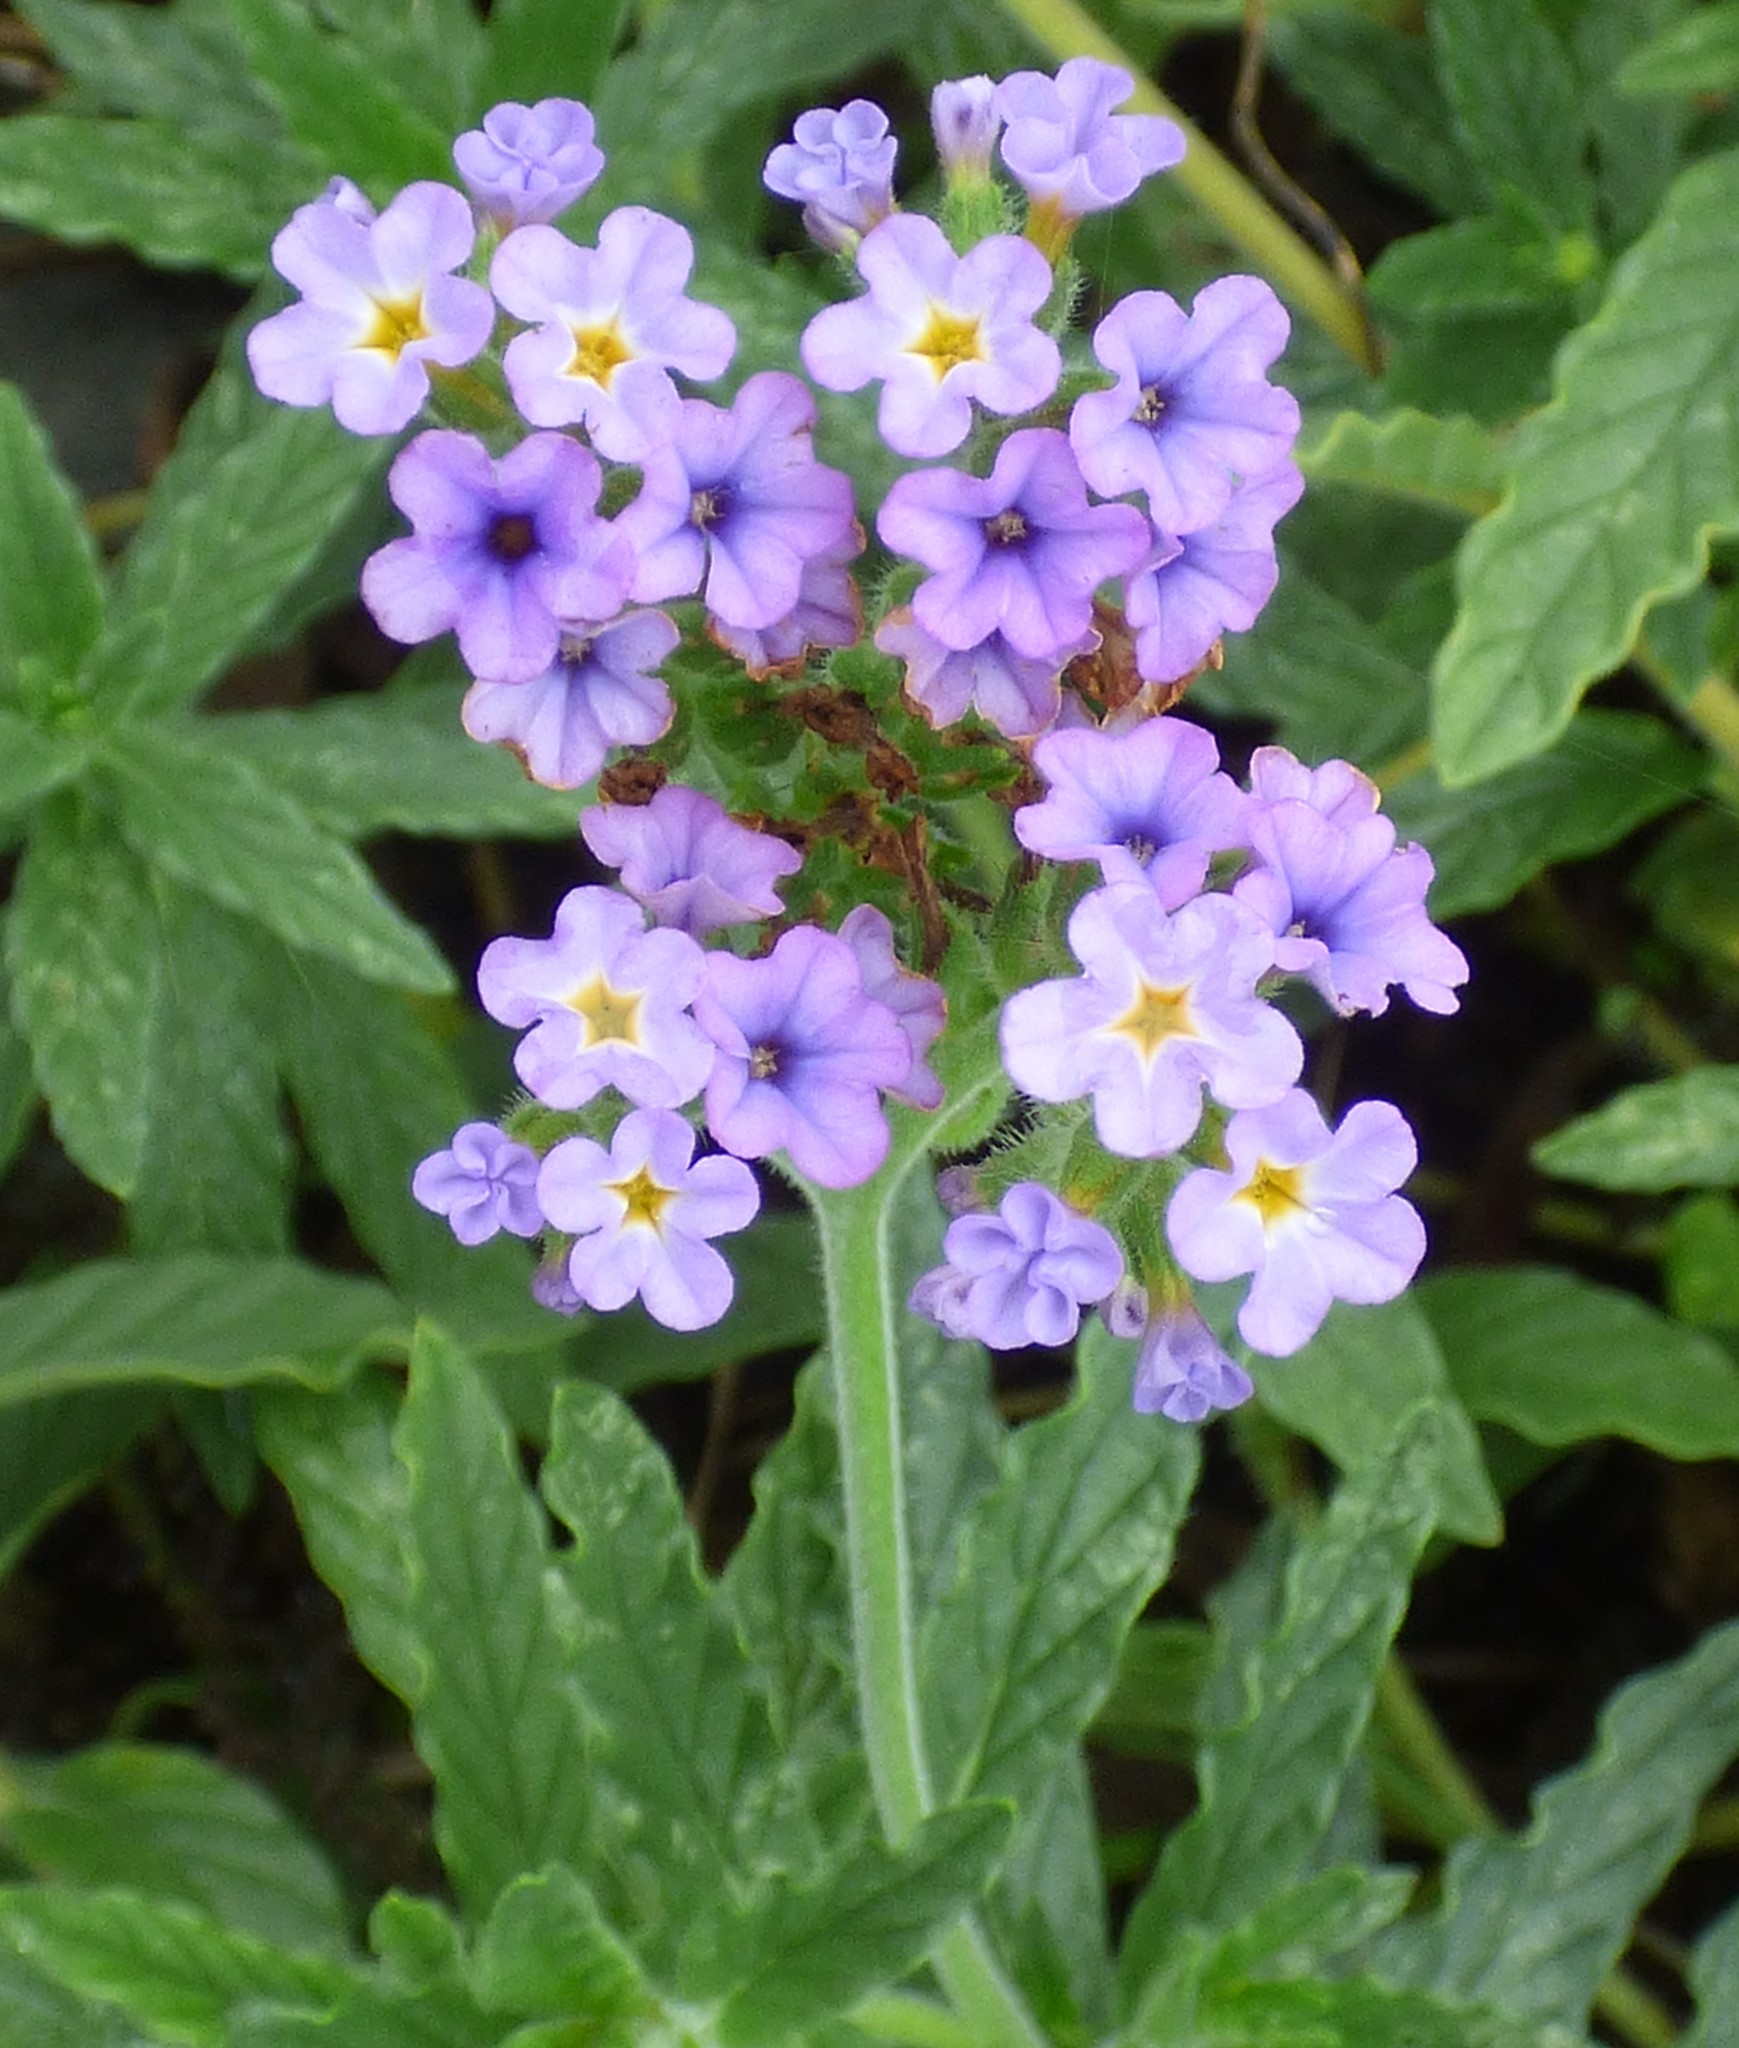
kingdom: Plantae
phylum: Tracheophyta
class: Magnoliopsida
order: Boraginales
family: Heliotropiaceae
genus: Heliotropium
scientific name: Heliotropium amplexicaule
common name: Clasping heliotrope
